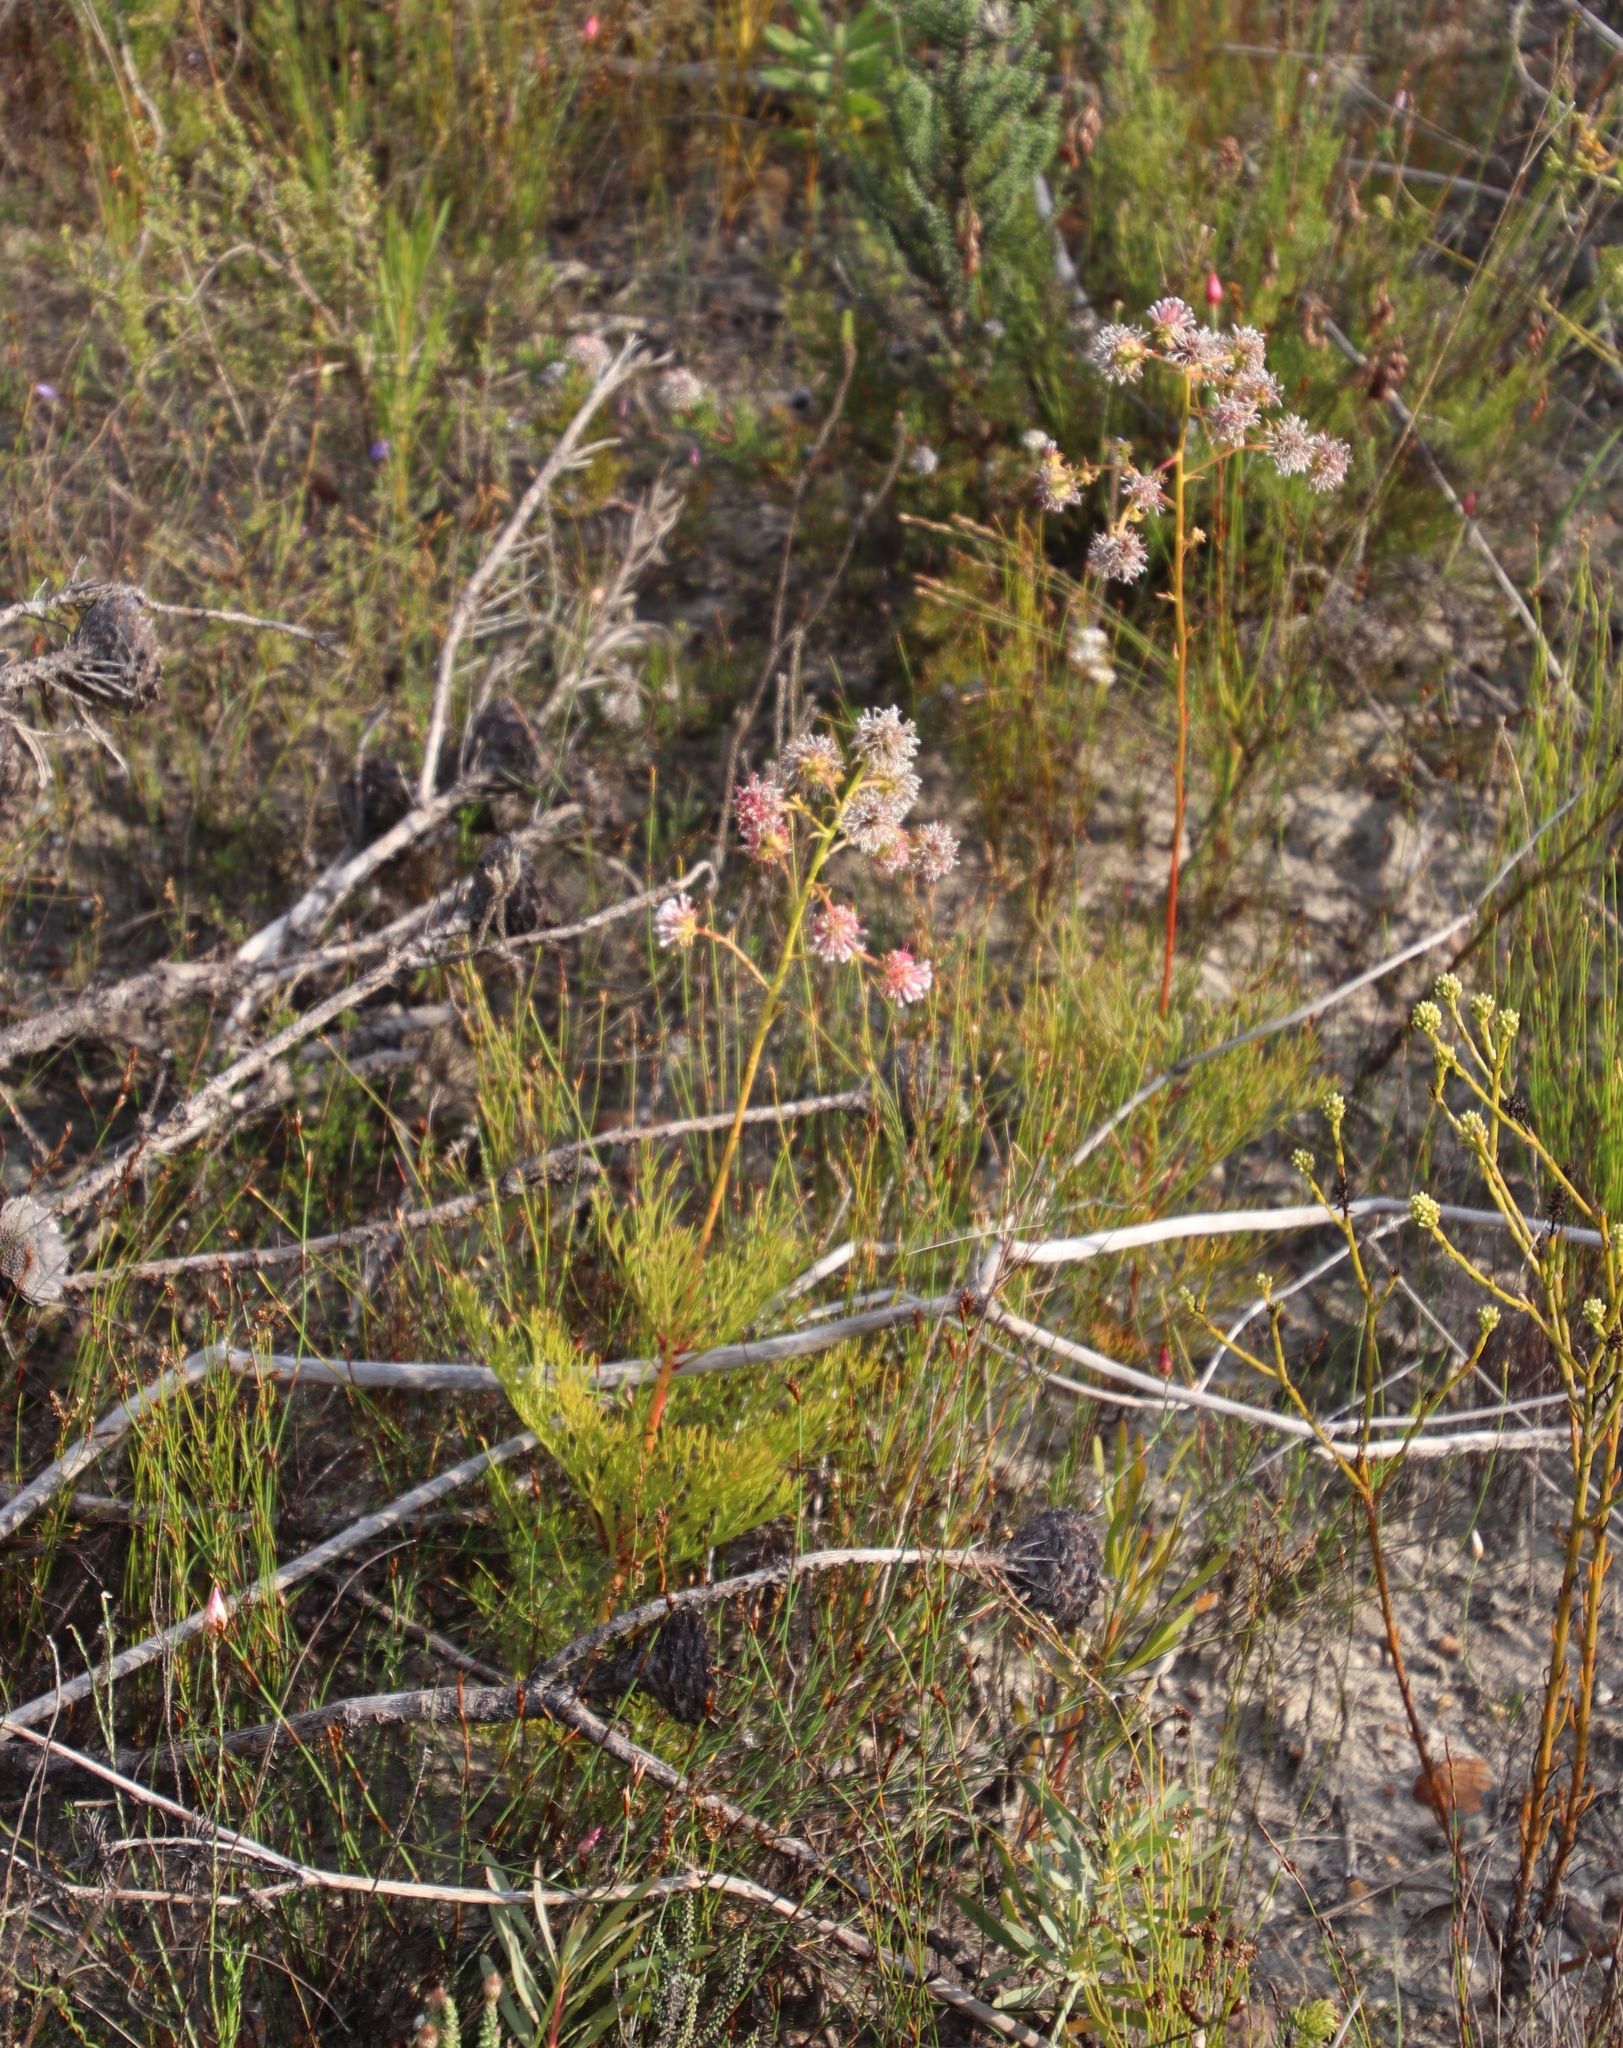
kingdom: Plantae
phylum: Tracheophyta
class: Magnoliopsida
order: Proteales
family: Proteaceae
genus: Serruria
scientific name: Serruria elongata
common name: Long-stalk spiderhead
